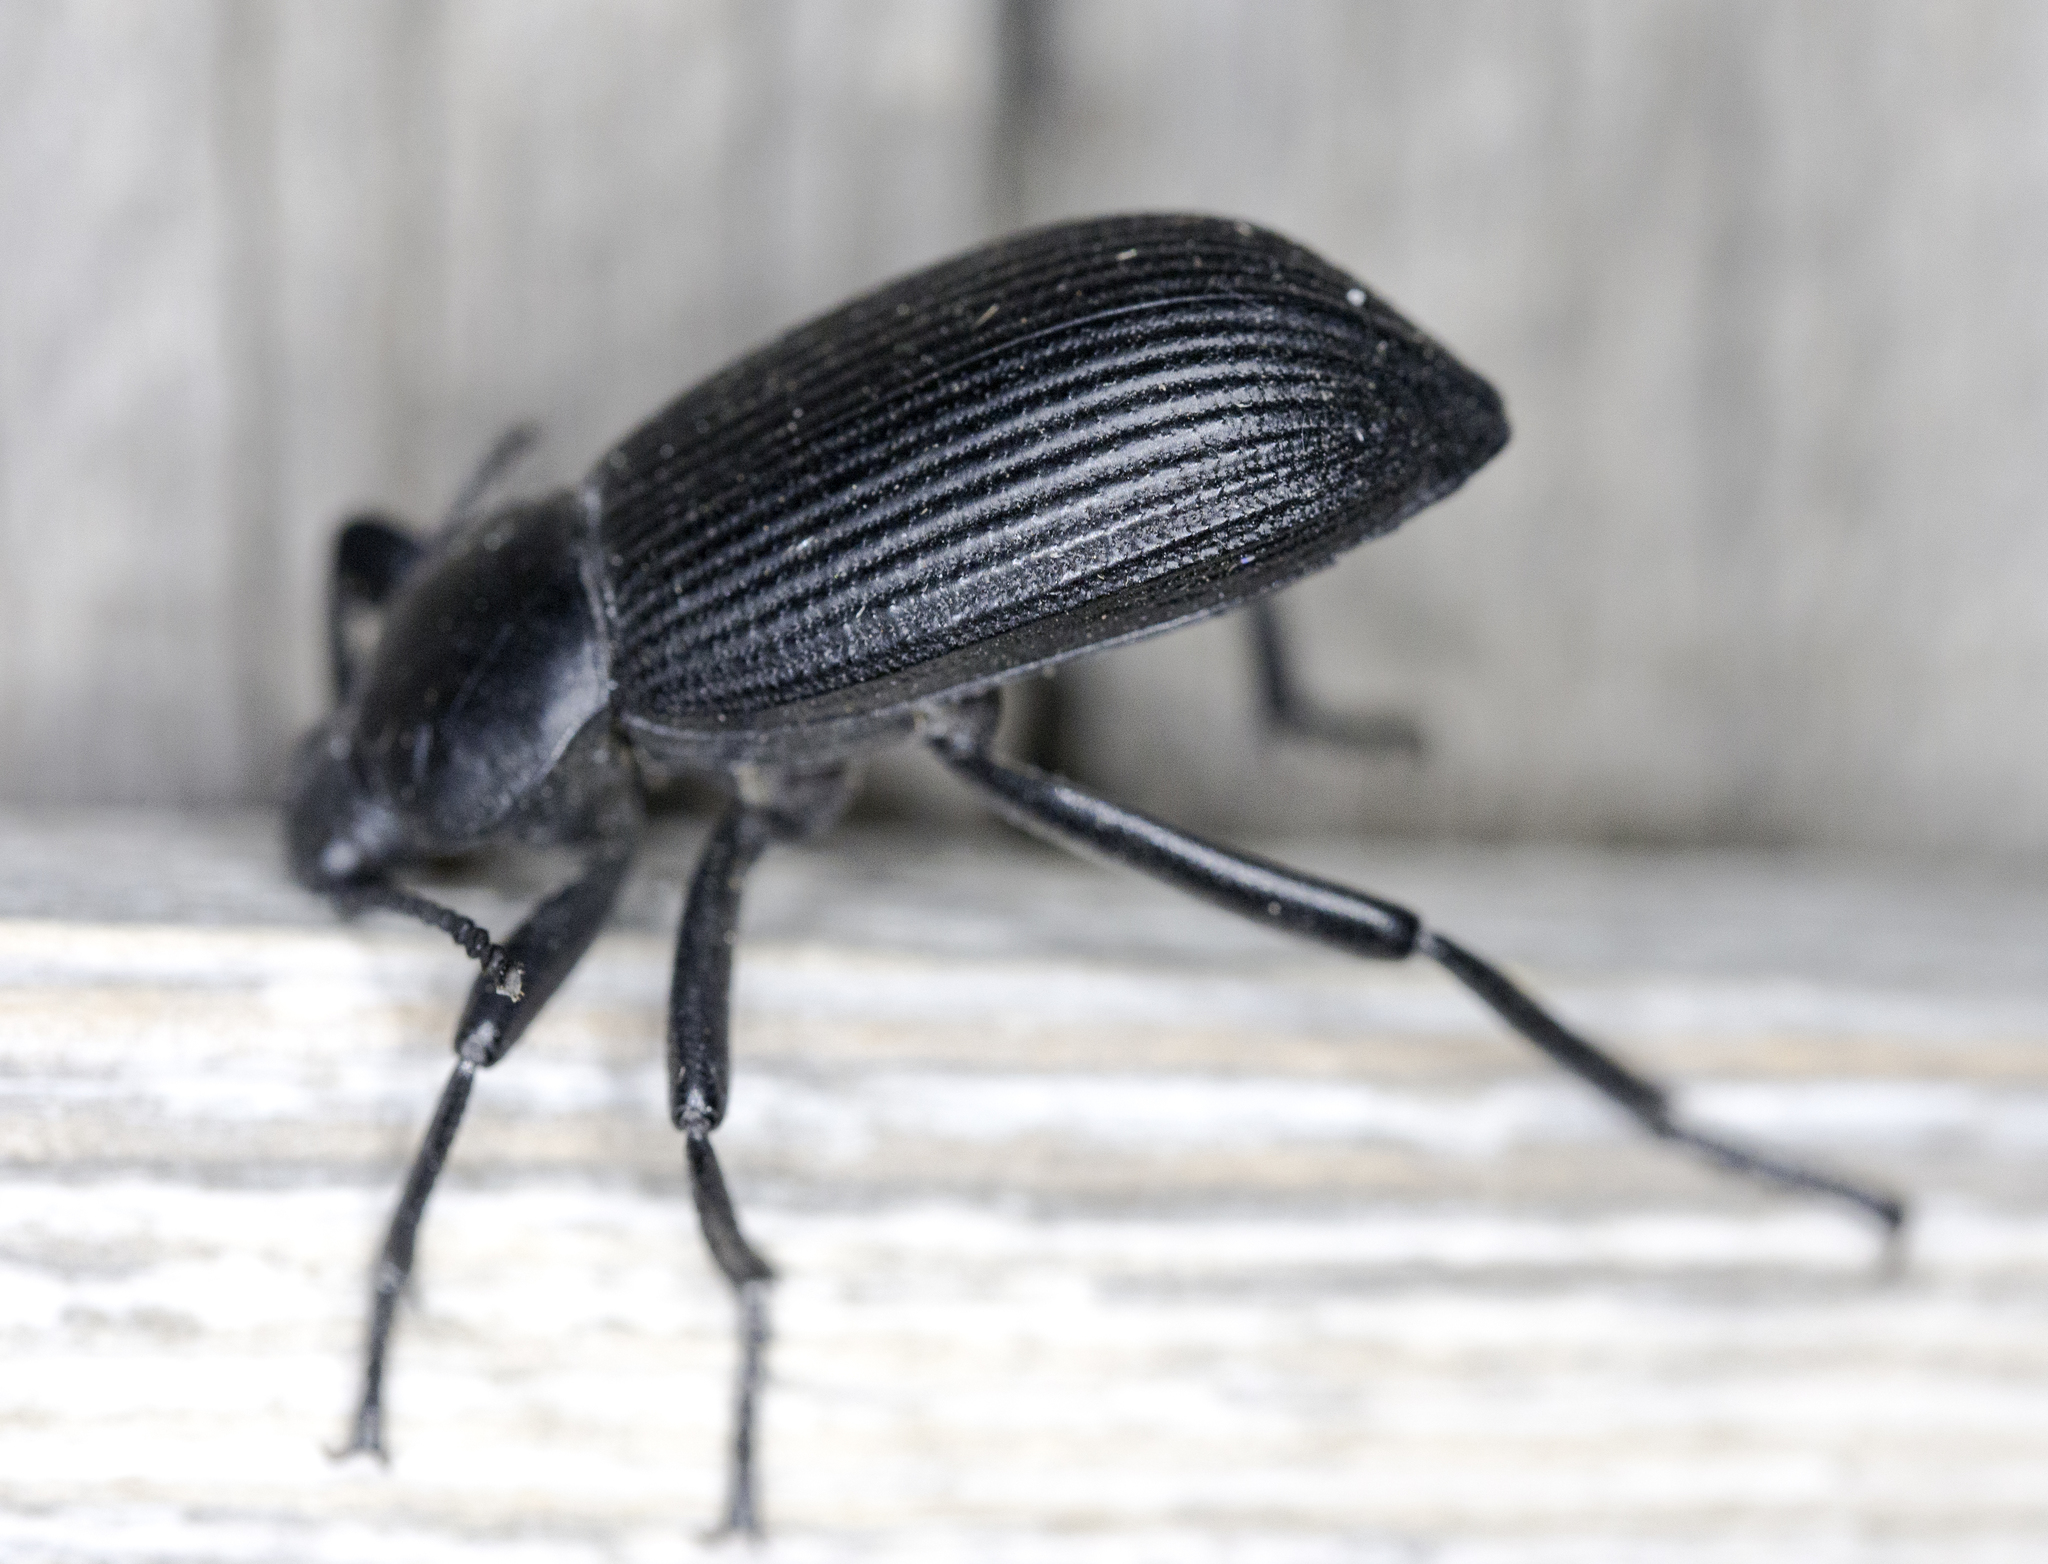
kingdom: Animalia
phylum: Arthropoda
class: Insecta
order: Coleoptera
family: Tenebrionidae
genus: Eleodes
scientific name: Eleodes obscura
